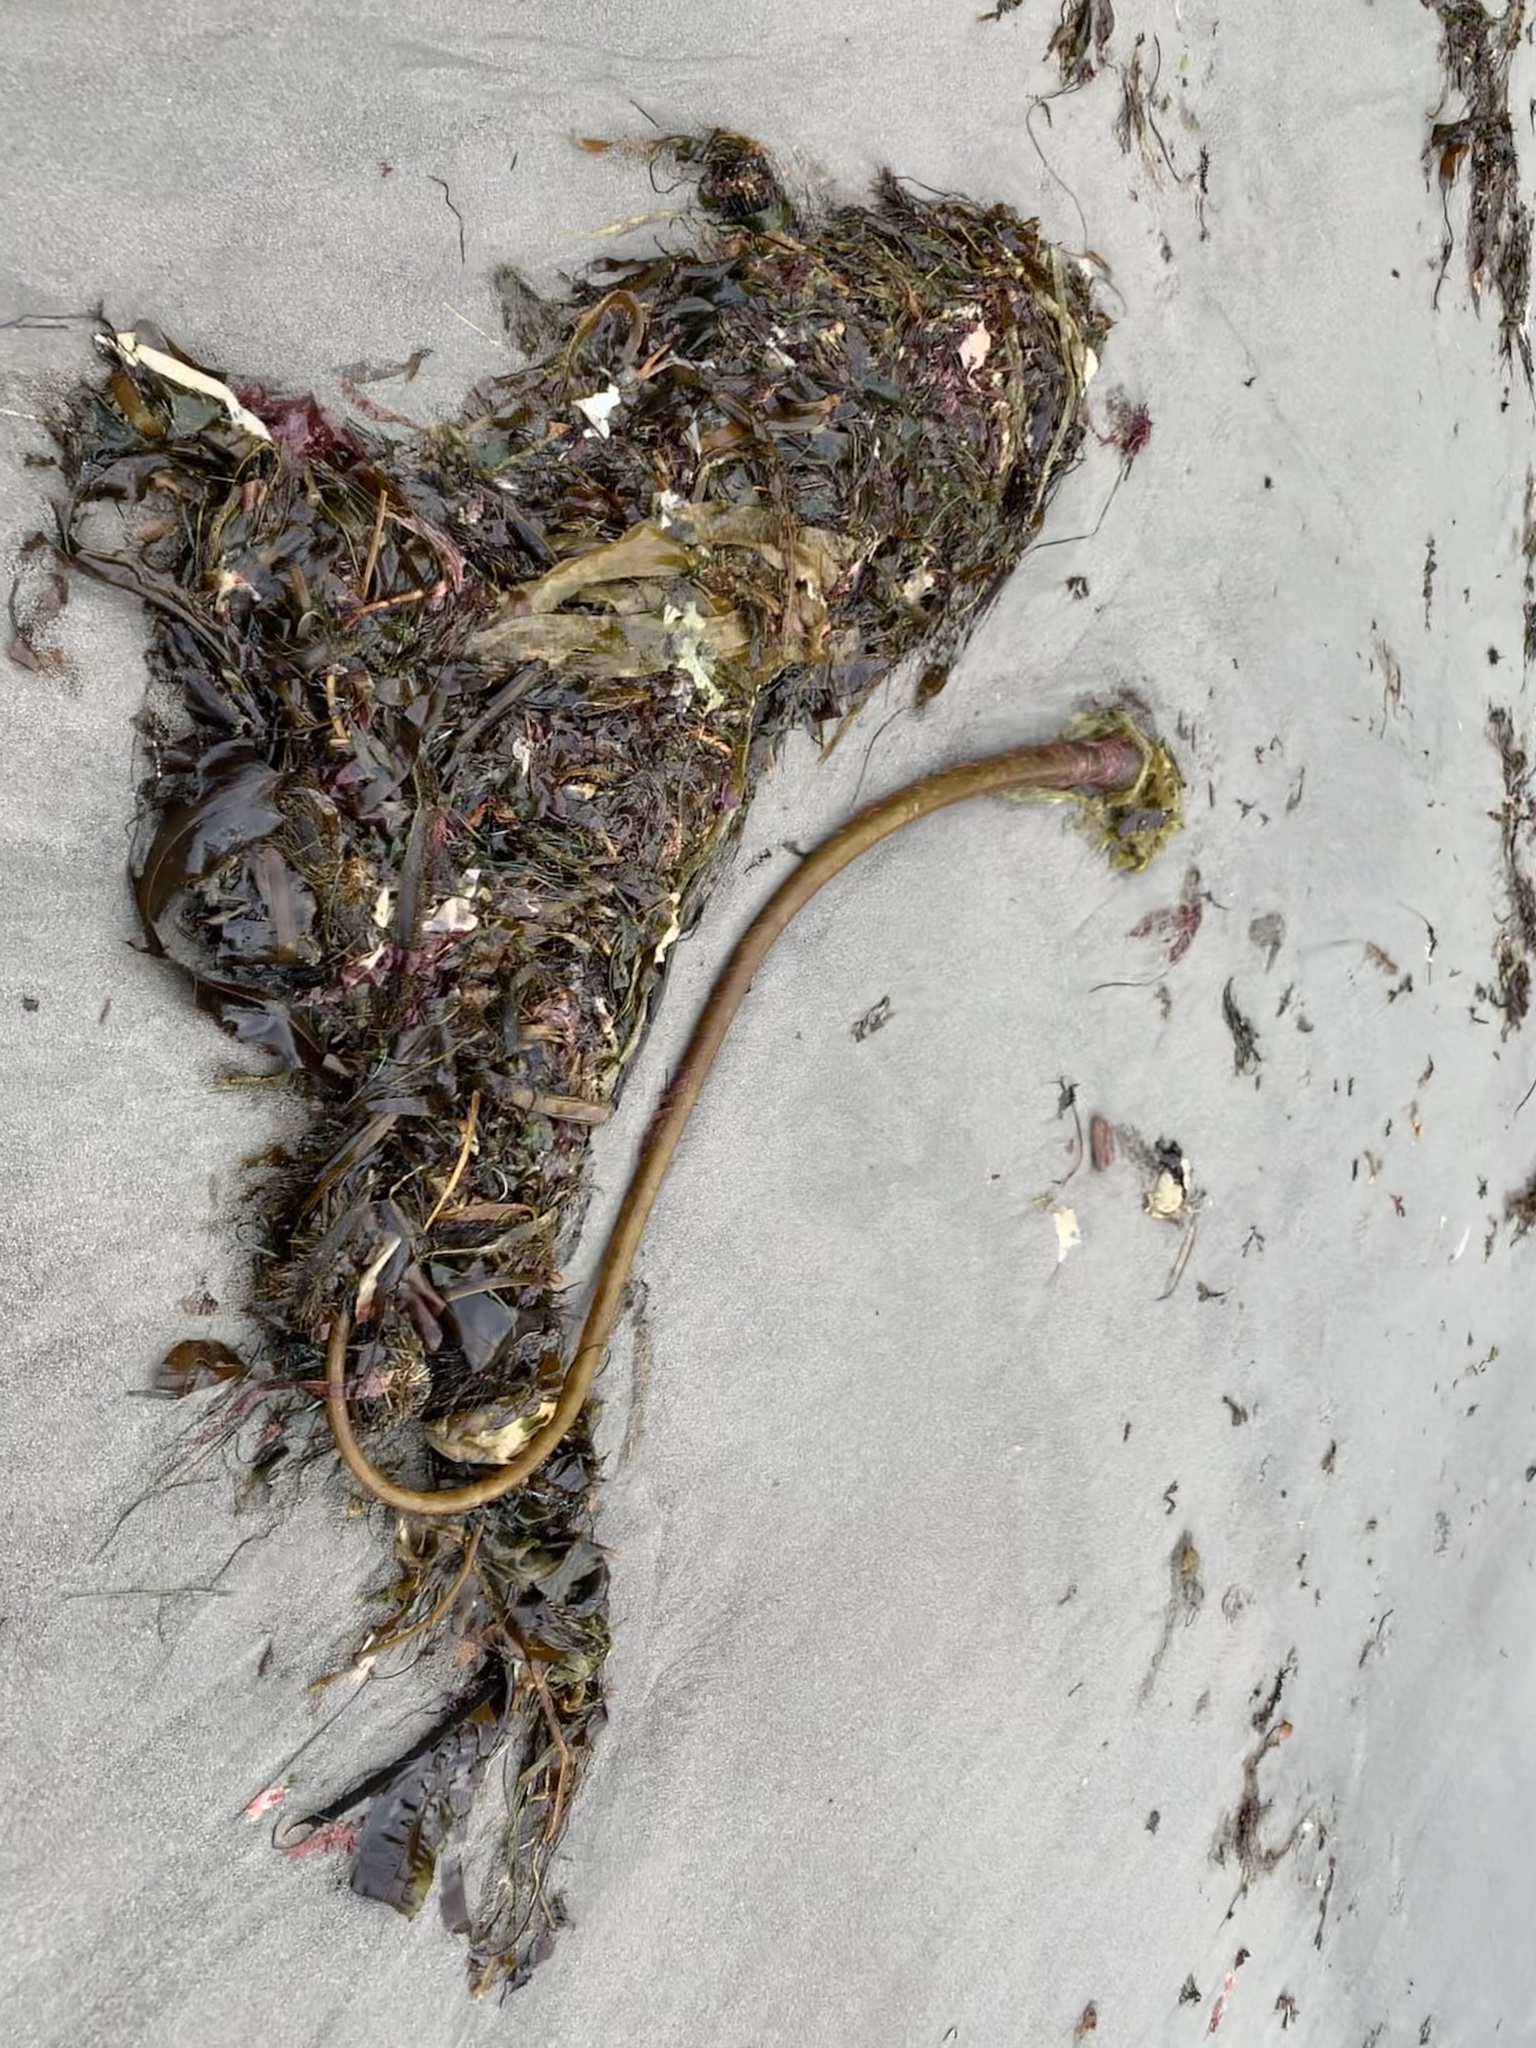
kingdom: Chromista
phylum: Ochrophyta
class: Phaeophyceae
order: Laminariales
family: Laminariaceae
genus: Nereocystis
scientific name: Nereocystis luetkeana
